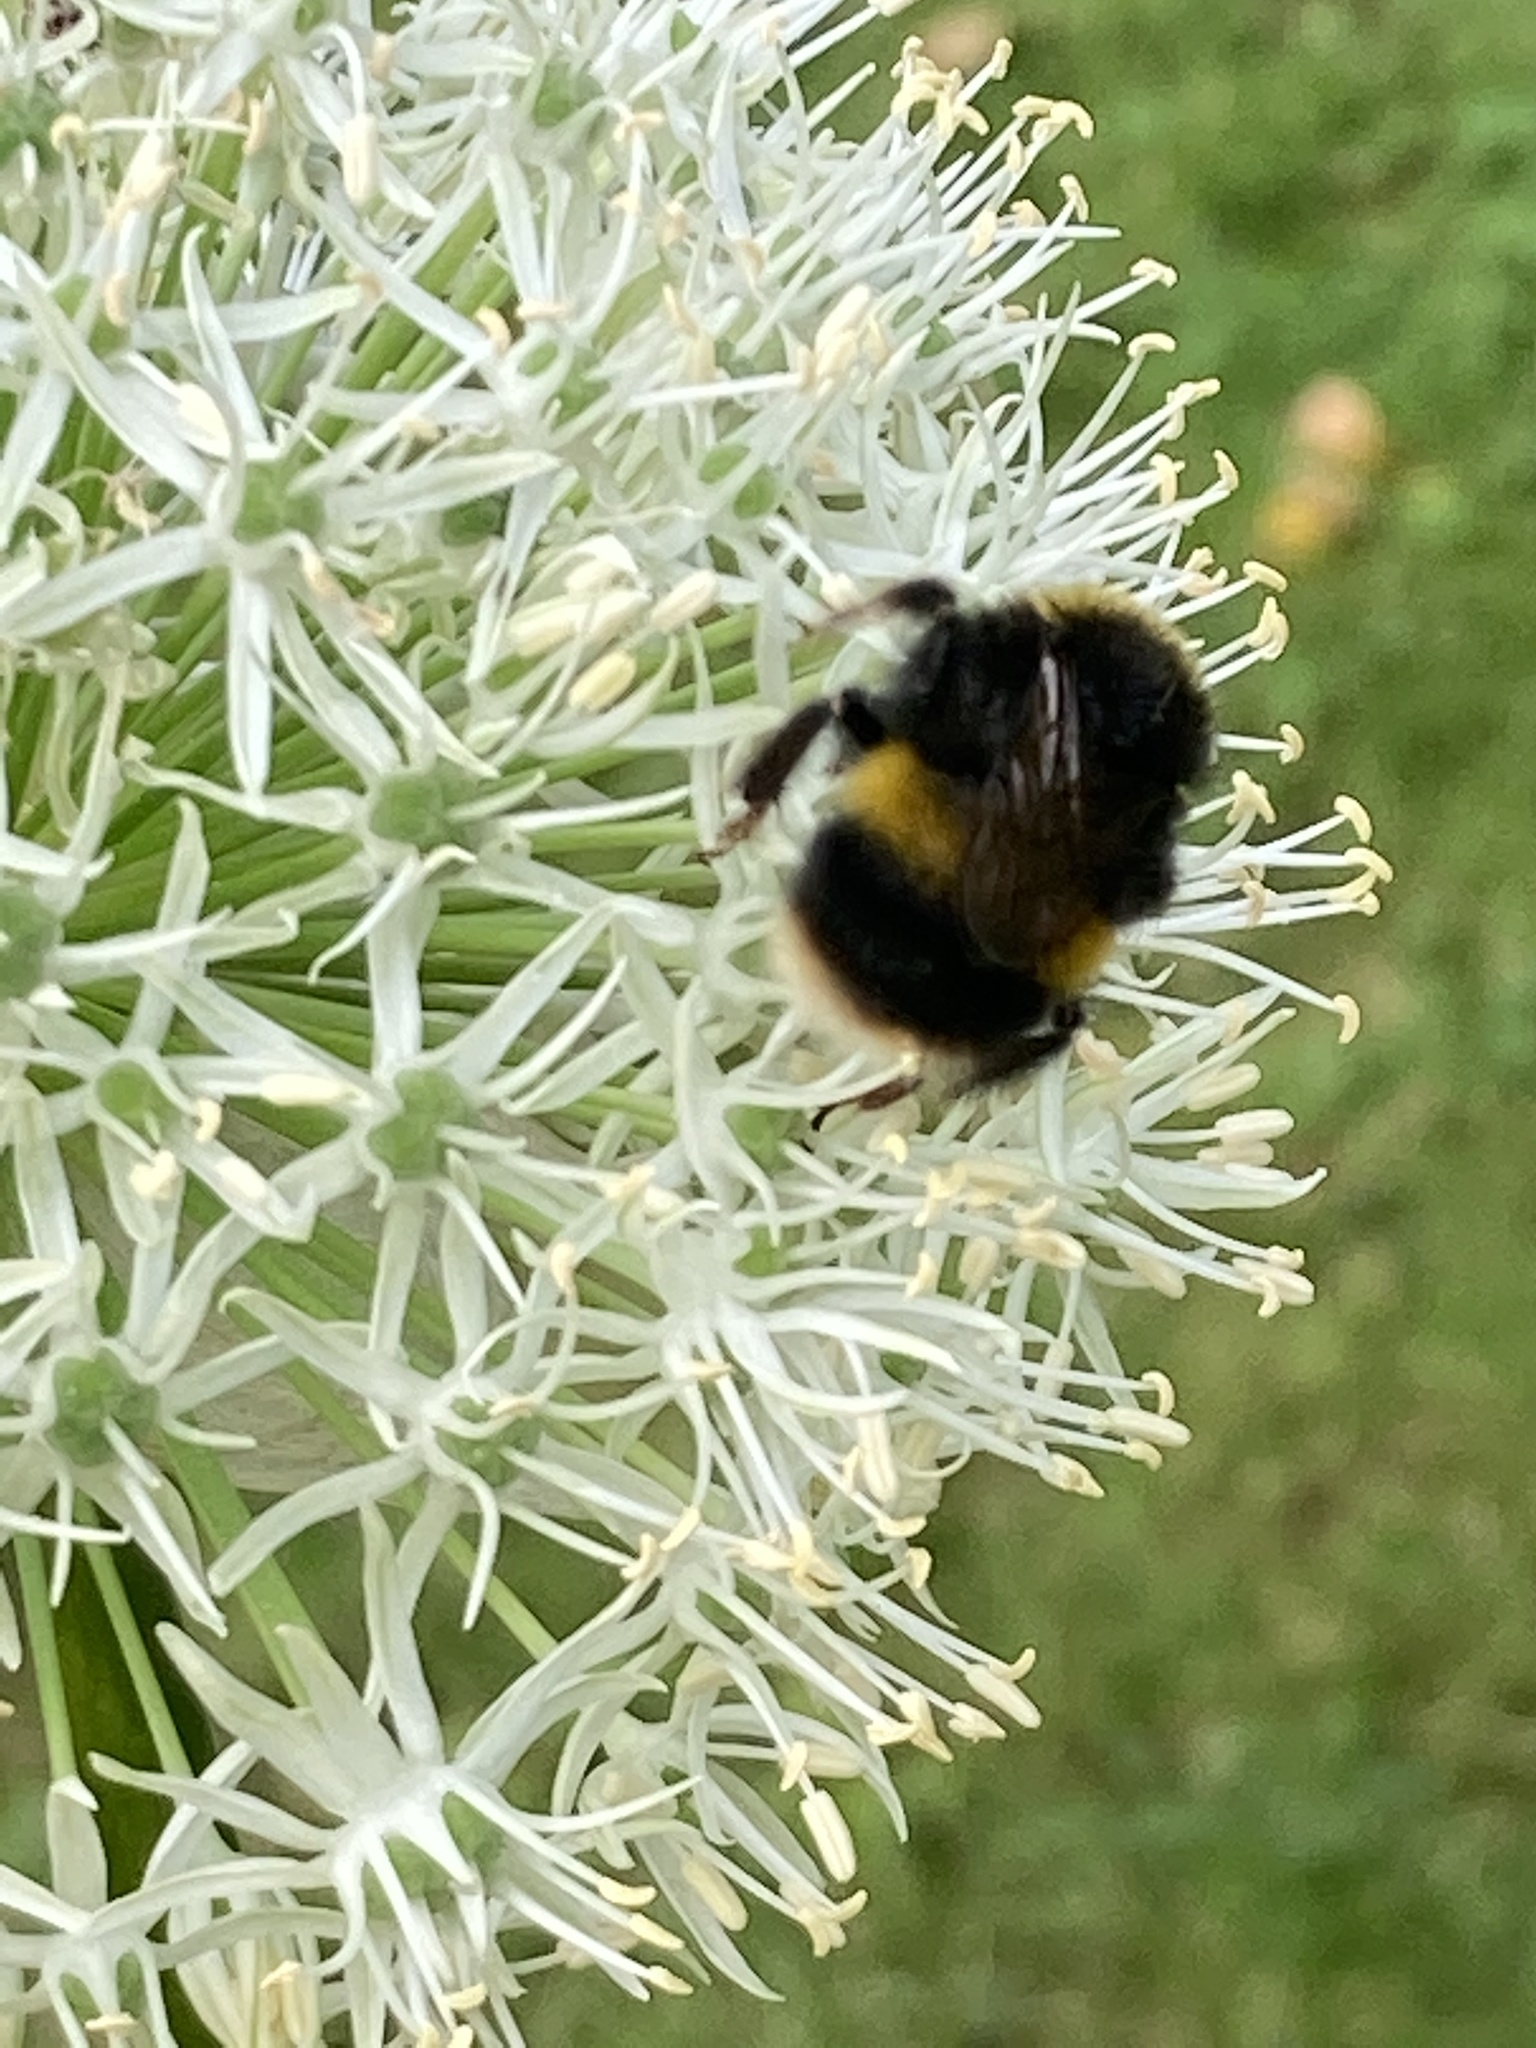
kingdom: Animalia
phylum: Arthropoda
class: Insecta
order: Hymenoptera
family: Apidae
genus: Bombus
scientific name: Bombus terrestris
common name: Buff-tailed bumblebee
